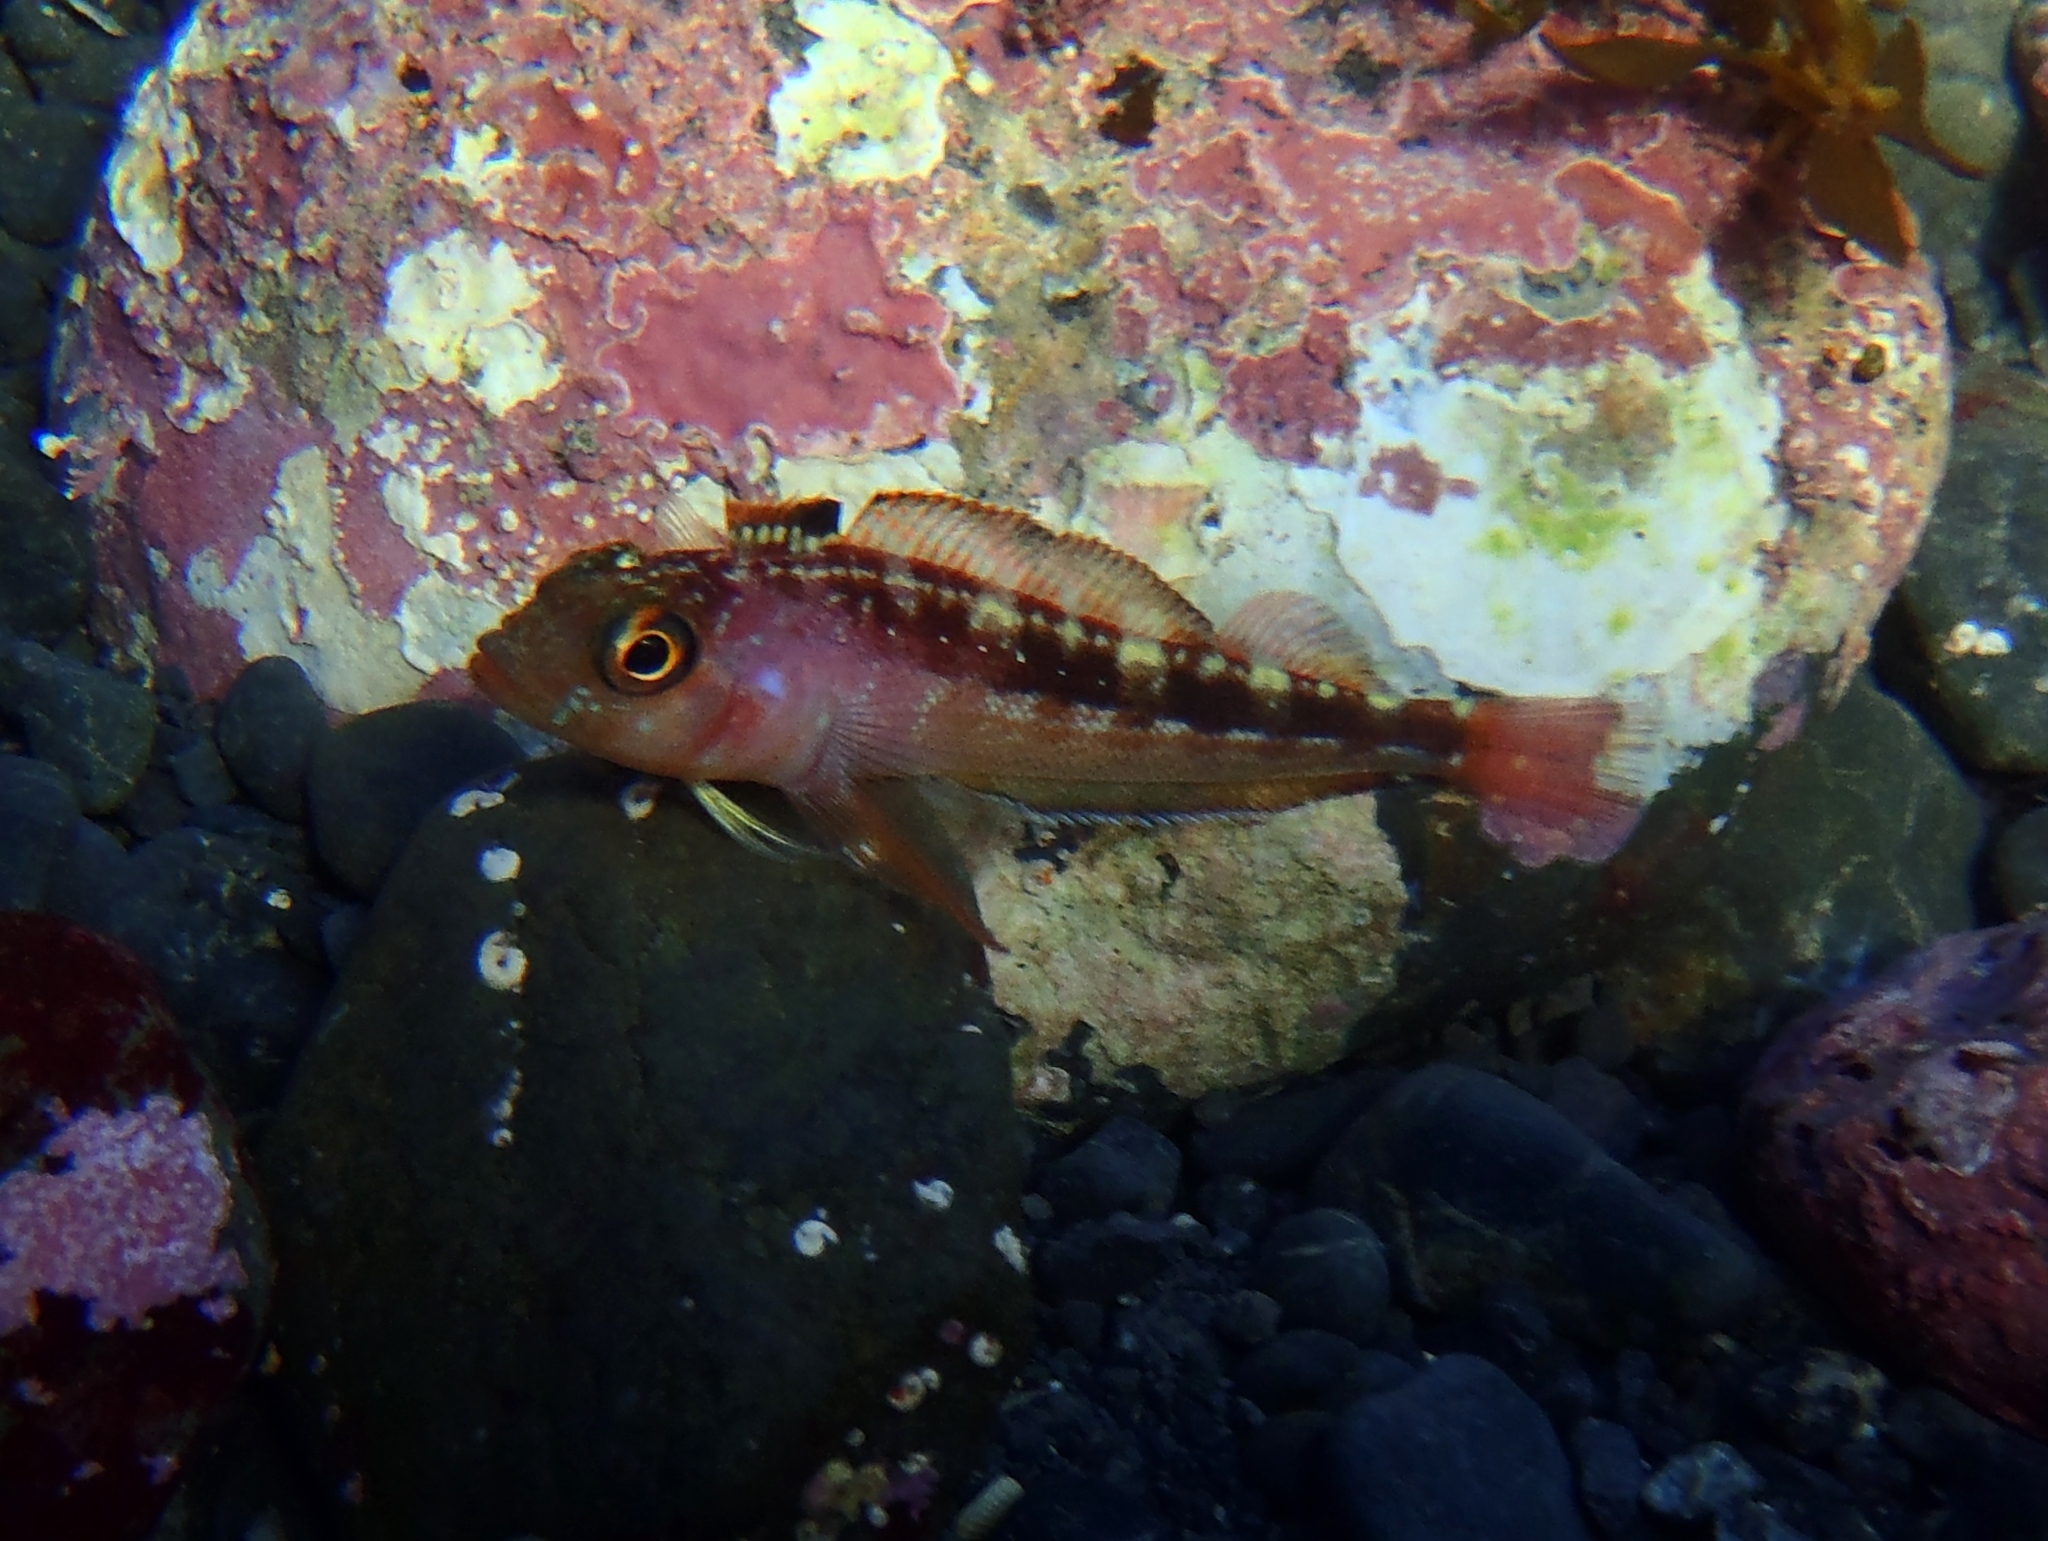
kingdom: Animalia
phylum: Chordata
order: Perciformes
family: Tripterygiidae
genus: Forsterygion
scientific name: Forsterygion varium
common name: Variable triplefin
